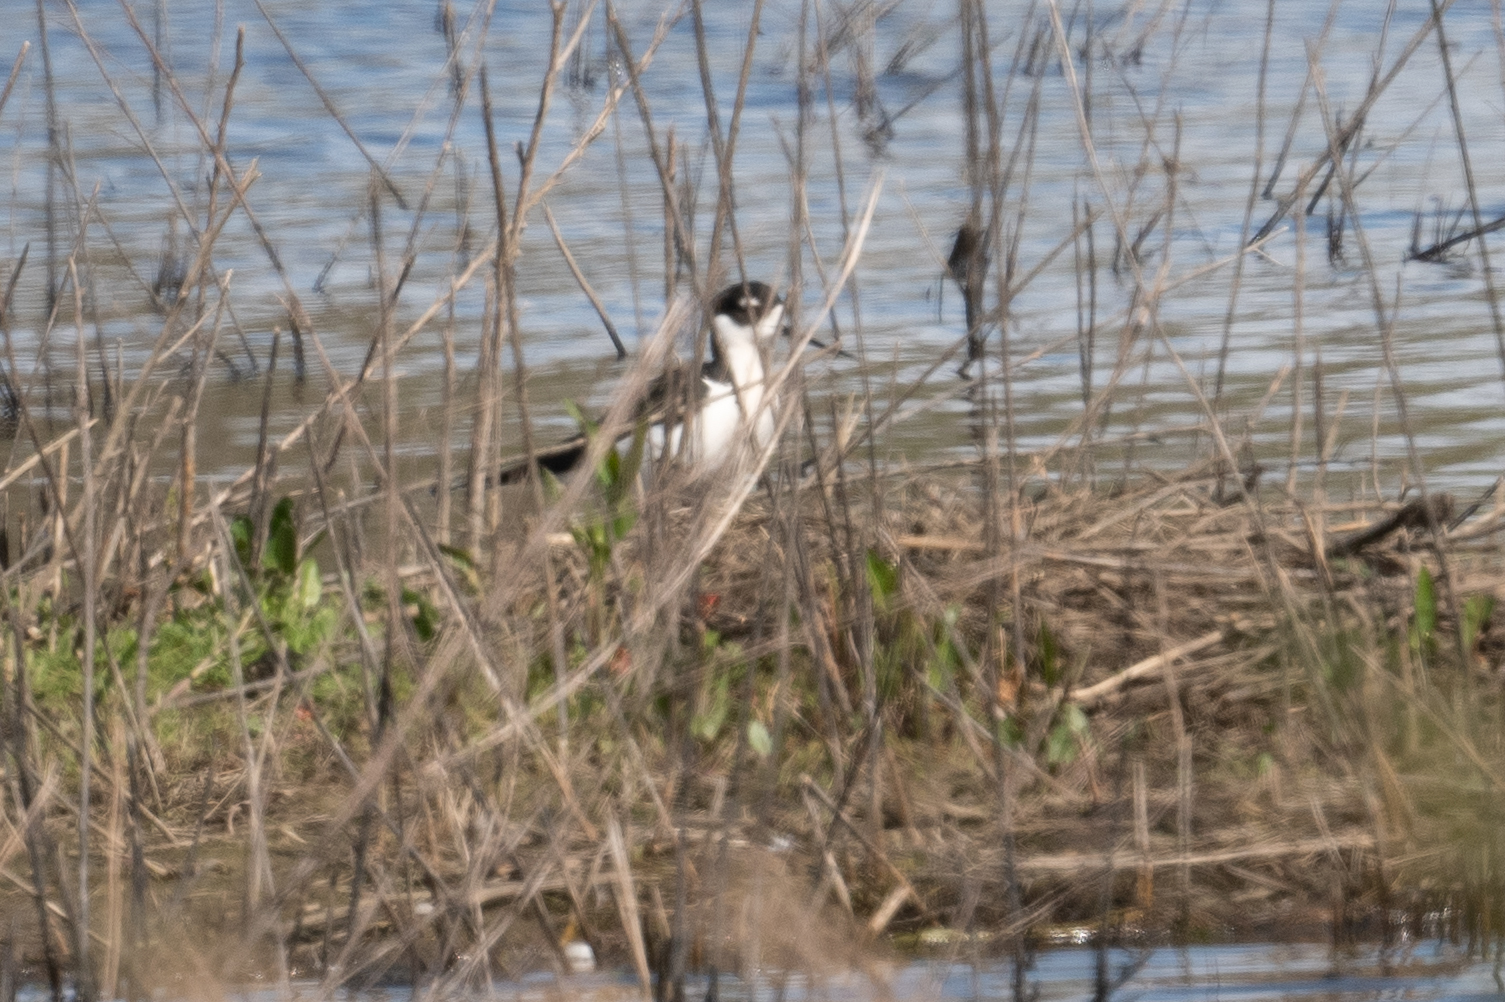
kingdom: Animalia
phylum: Chordata
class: Aves
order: Charadriiformes
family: Recurvirostridae
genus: Himantopus
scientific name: Himantopus mexicanus
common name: Black-necked stilt
